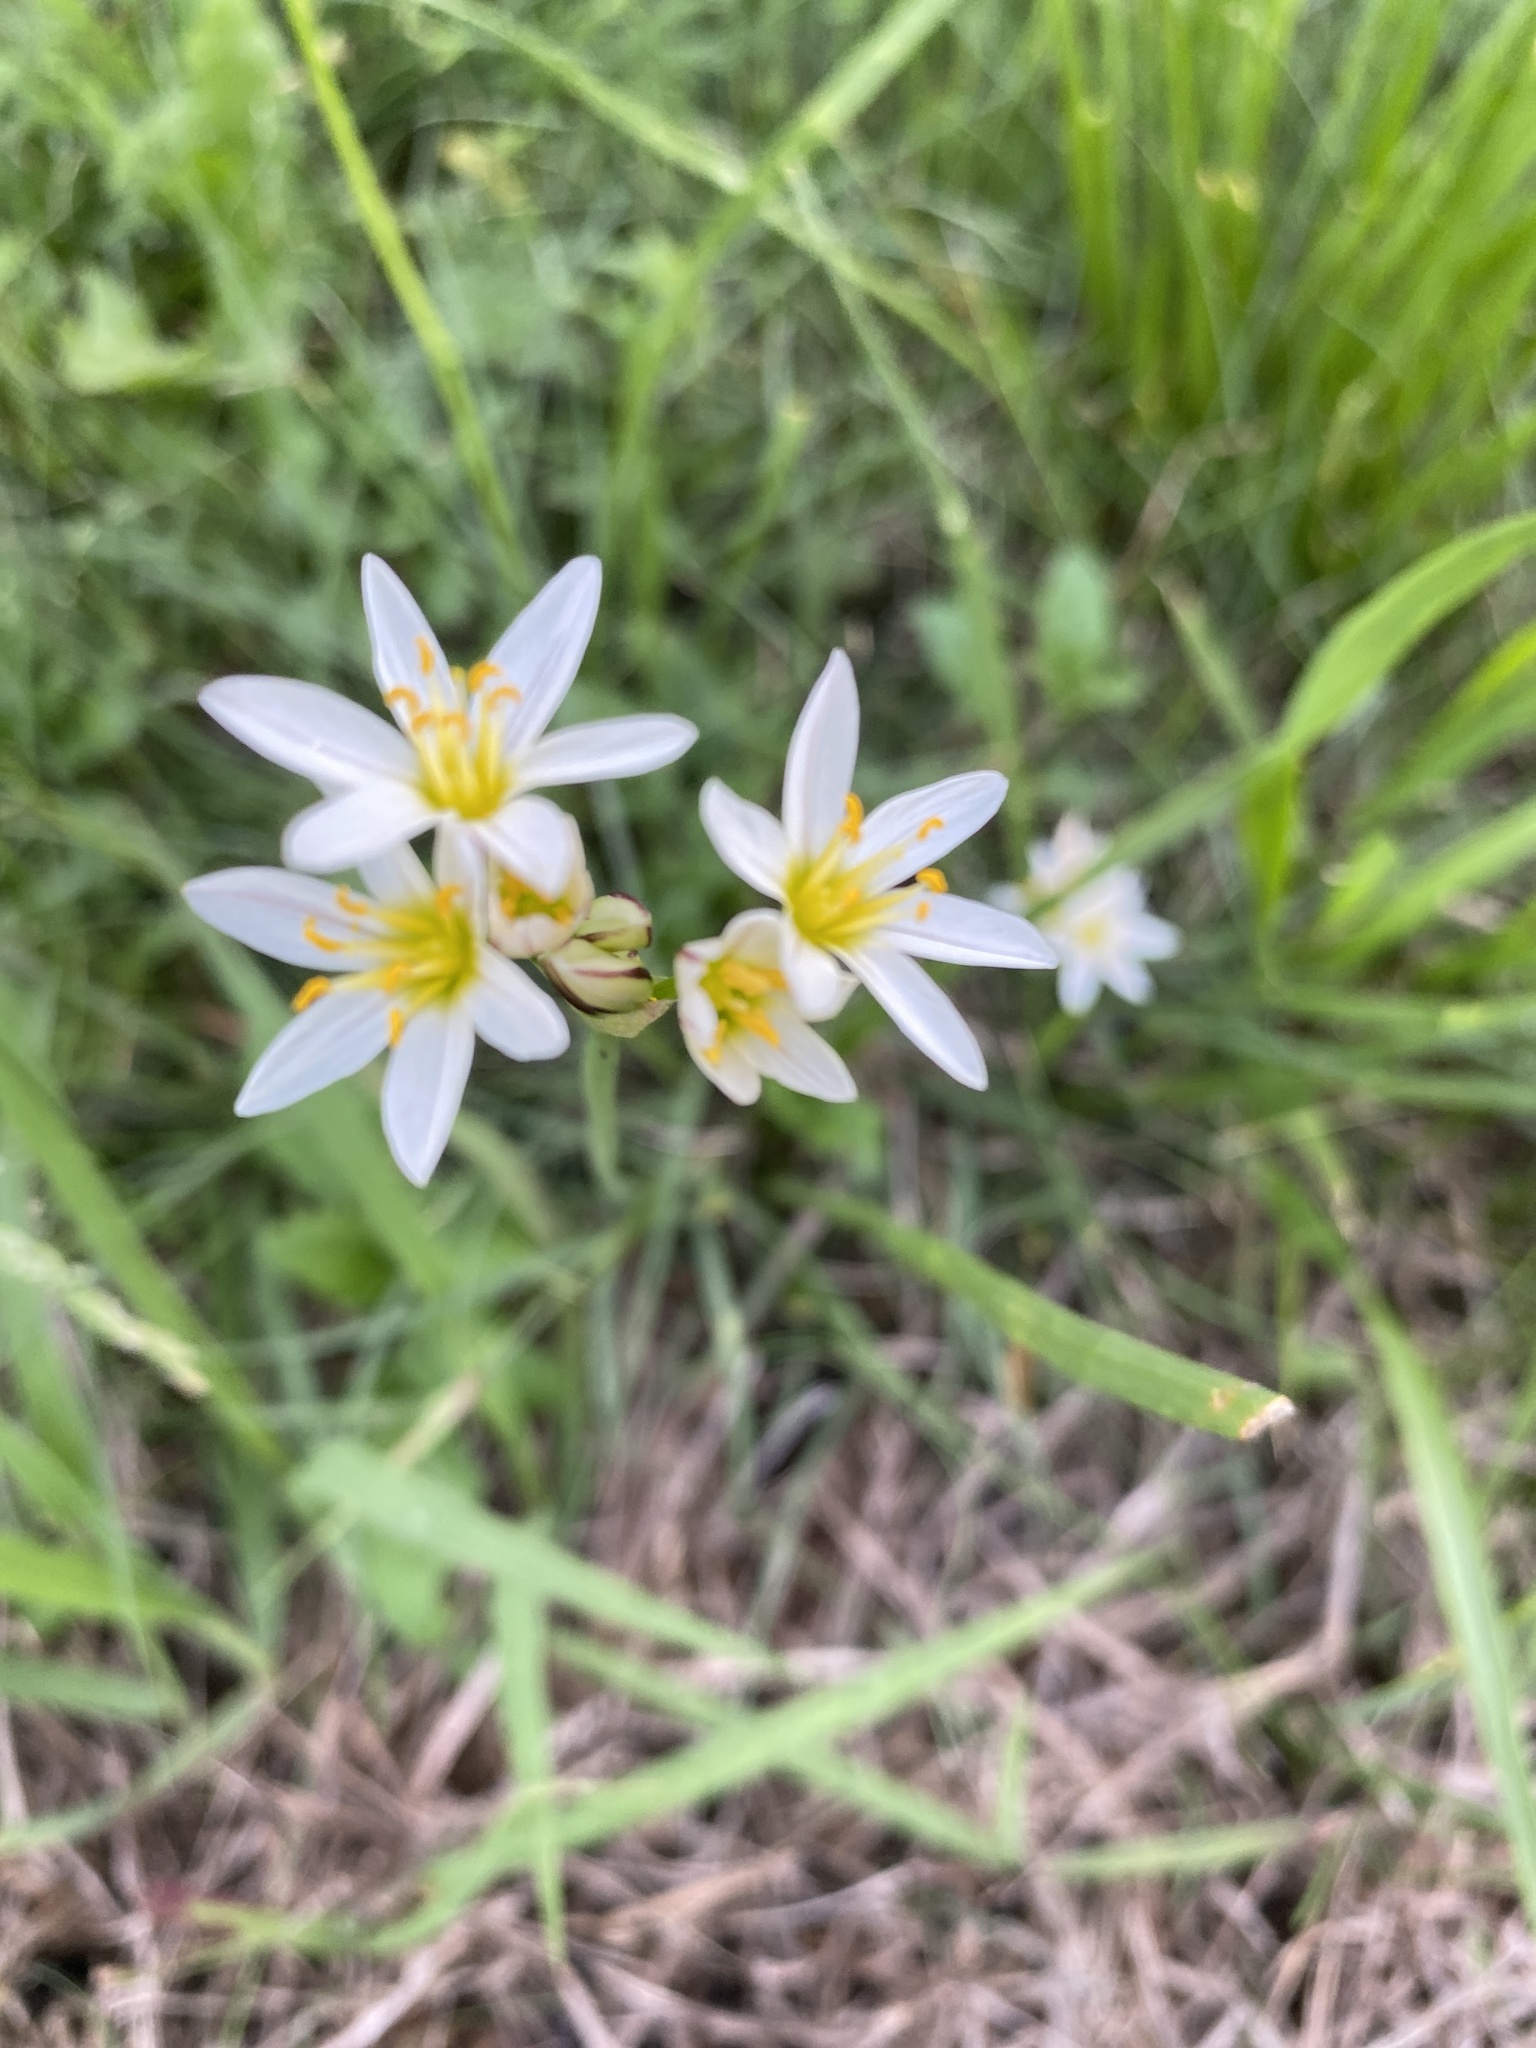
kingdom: Plantae
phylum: Tracheophyta
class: Liliopsida
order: Asparagales
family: Amaryllidaceae
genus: Nothoscordum
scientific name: Nothoscordum bivalve
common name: Crow-poison
